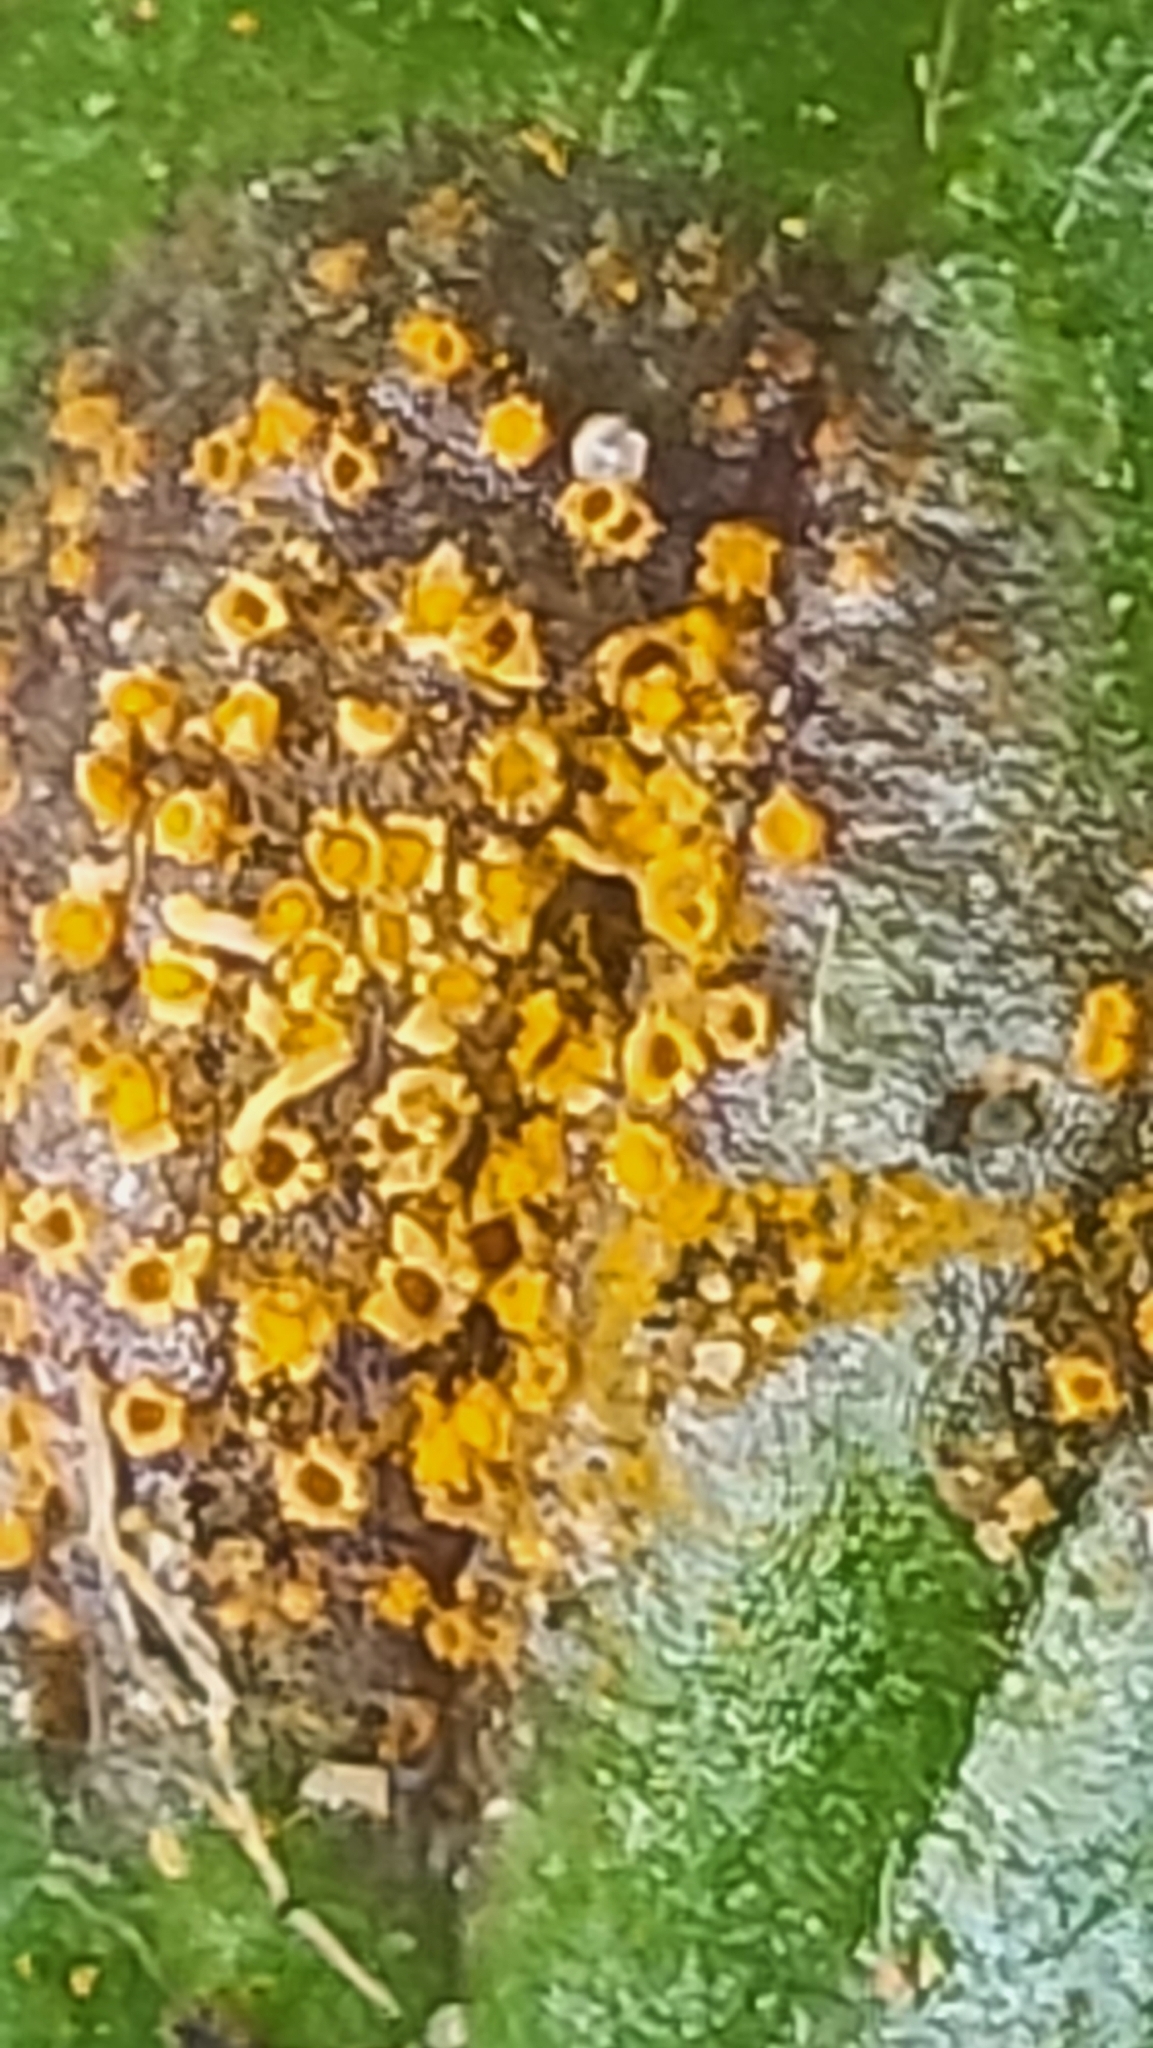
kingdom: Fungi
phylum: Basidiomycota
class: Pucciniomycetes
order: Pucciniales
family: Pucciniaceae
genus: Puccinia
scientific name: Puccinia lagenophorae
